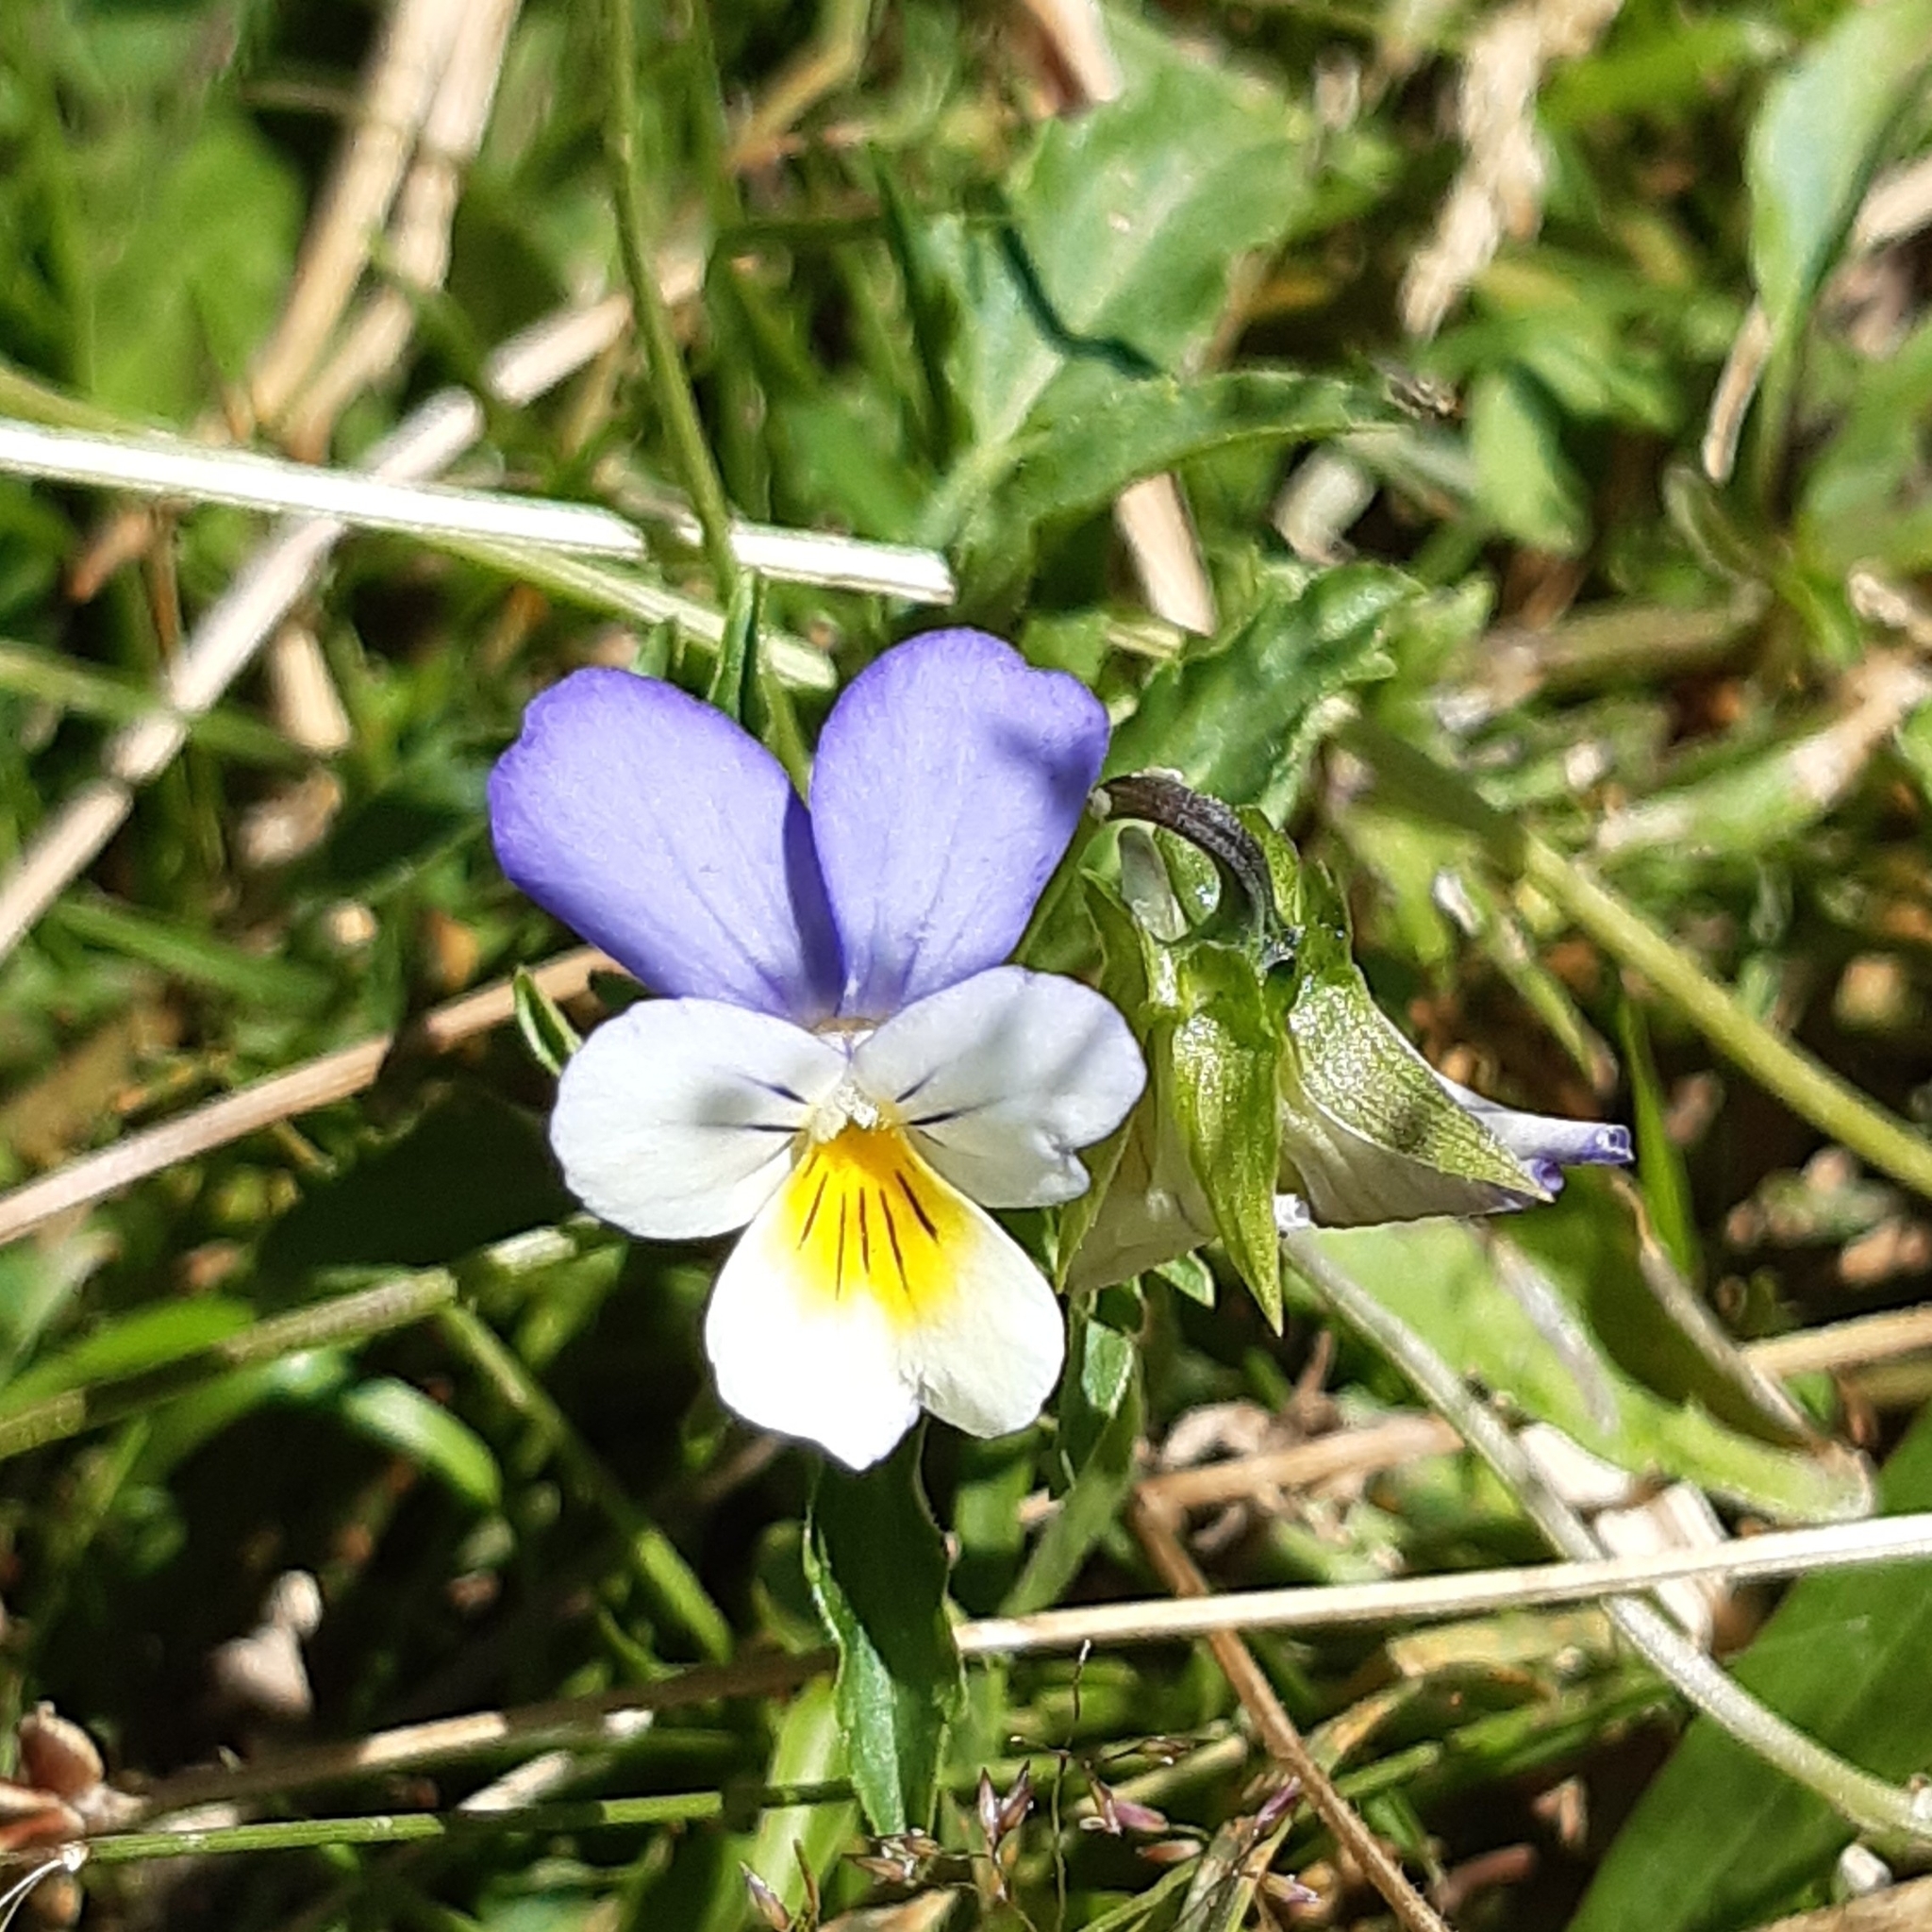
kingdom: Plantae
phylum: Tracheophyta
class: Magnoliopsida
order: Malpighiales
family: Violaceae
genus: Viola
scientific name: Viola tricolor
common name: Pansy
